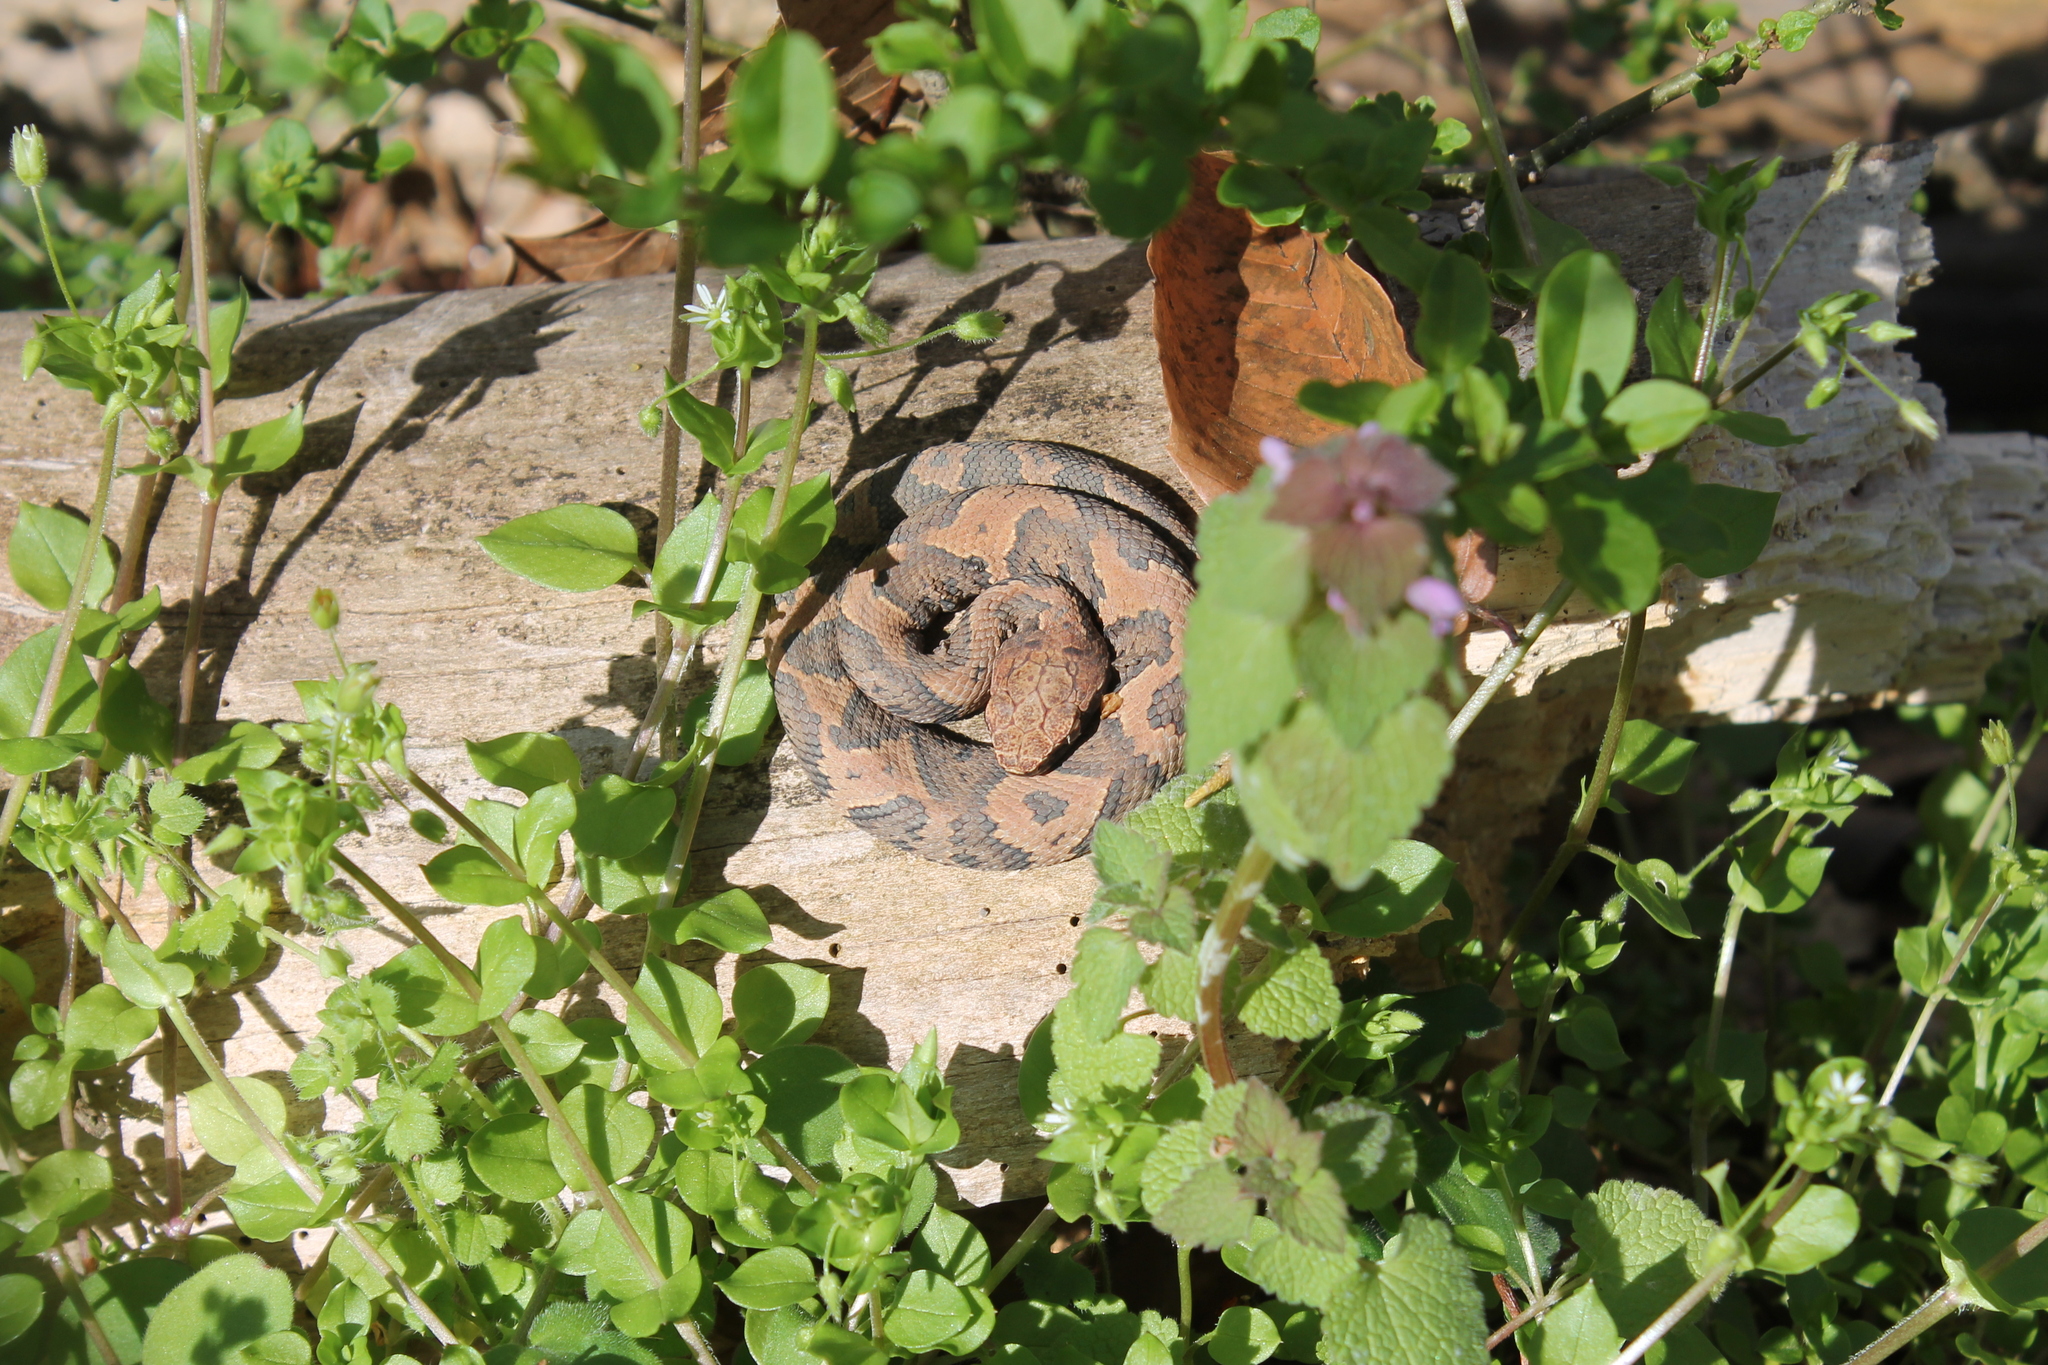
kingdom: Animalia
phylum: Chordata
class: Squamata
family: Viperidae
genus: Agkistrodon
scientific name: Agkistrodon piscivorus
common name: Cottonmouth
